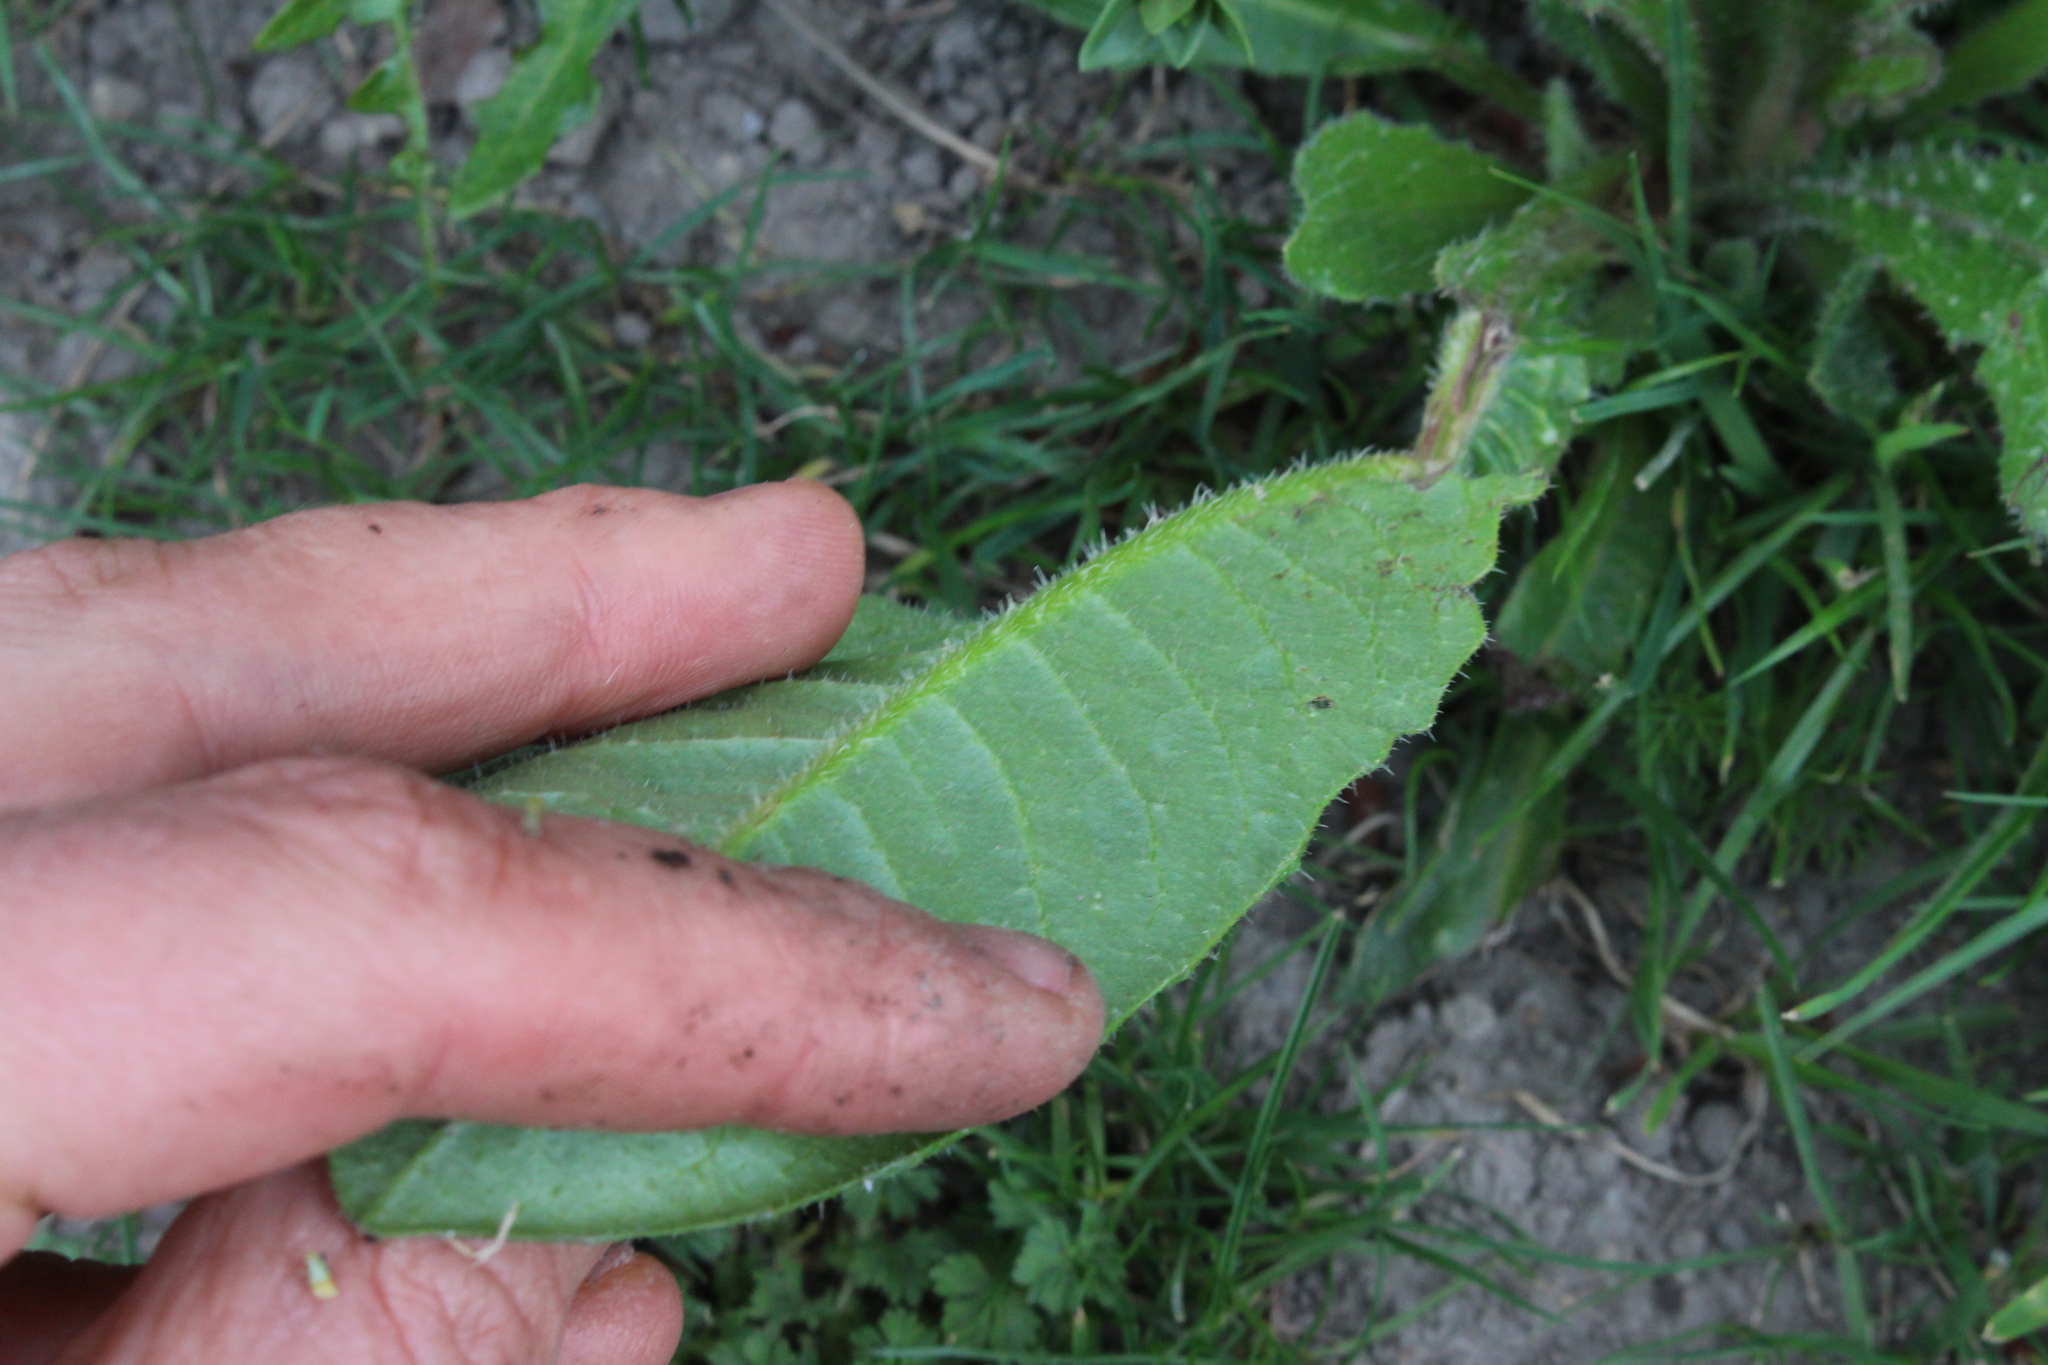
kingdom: Plantae
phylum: Tracheophyta
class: Magnoliopsida
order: Asterales
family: Asteraceae
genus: Helminthotheca
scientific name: Helminthotheca echioides
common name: Ox-tongue
